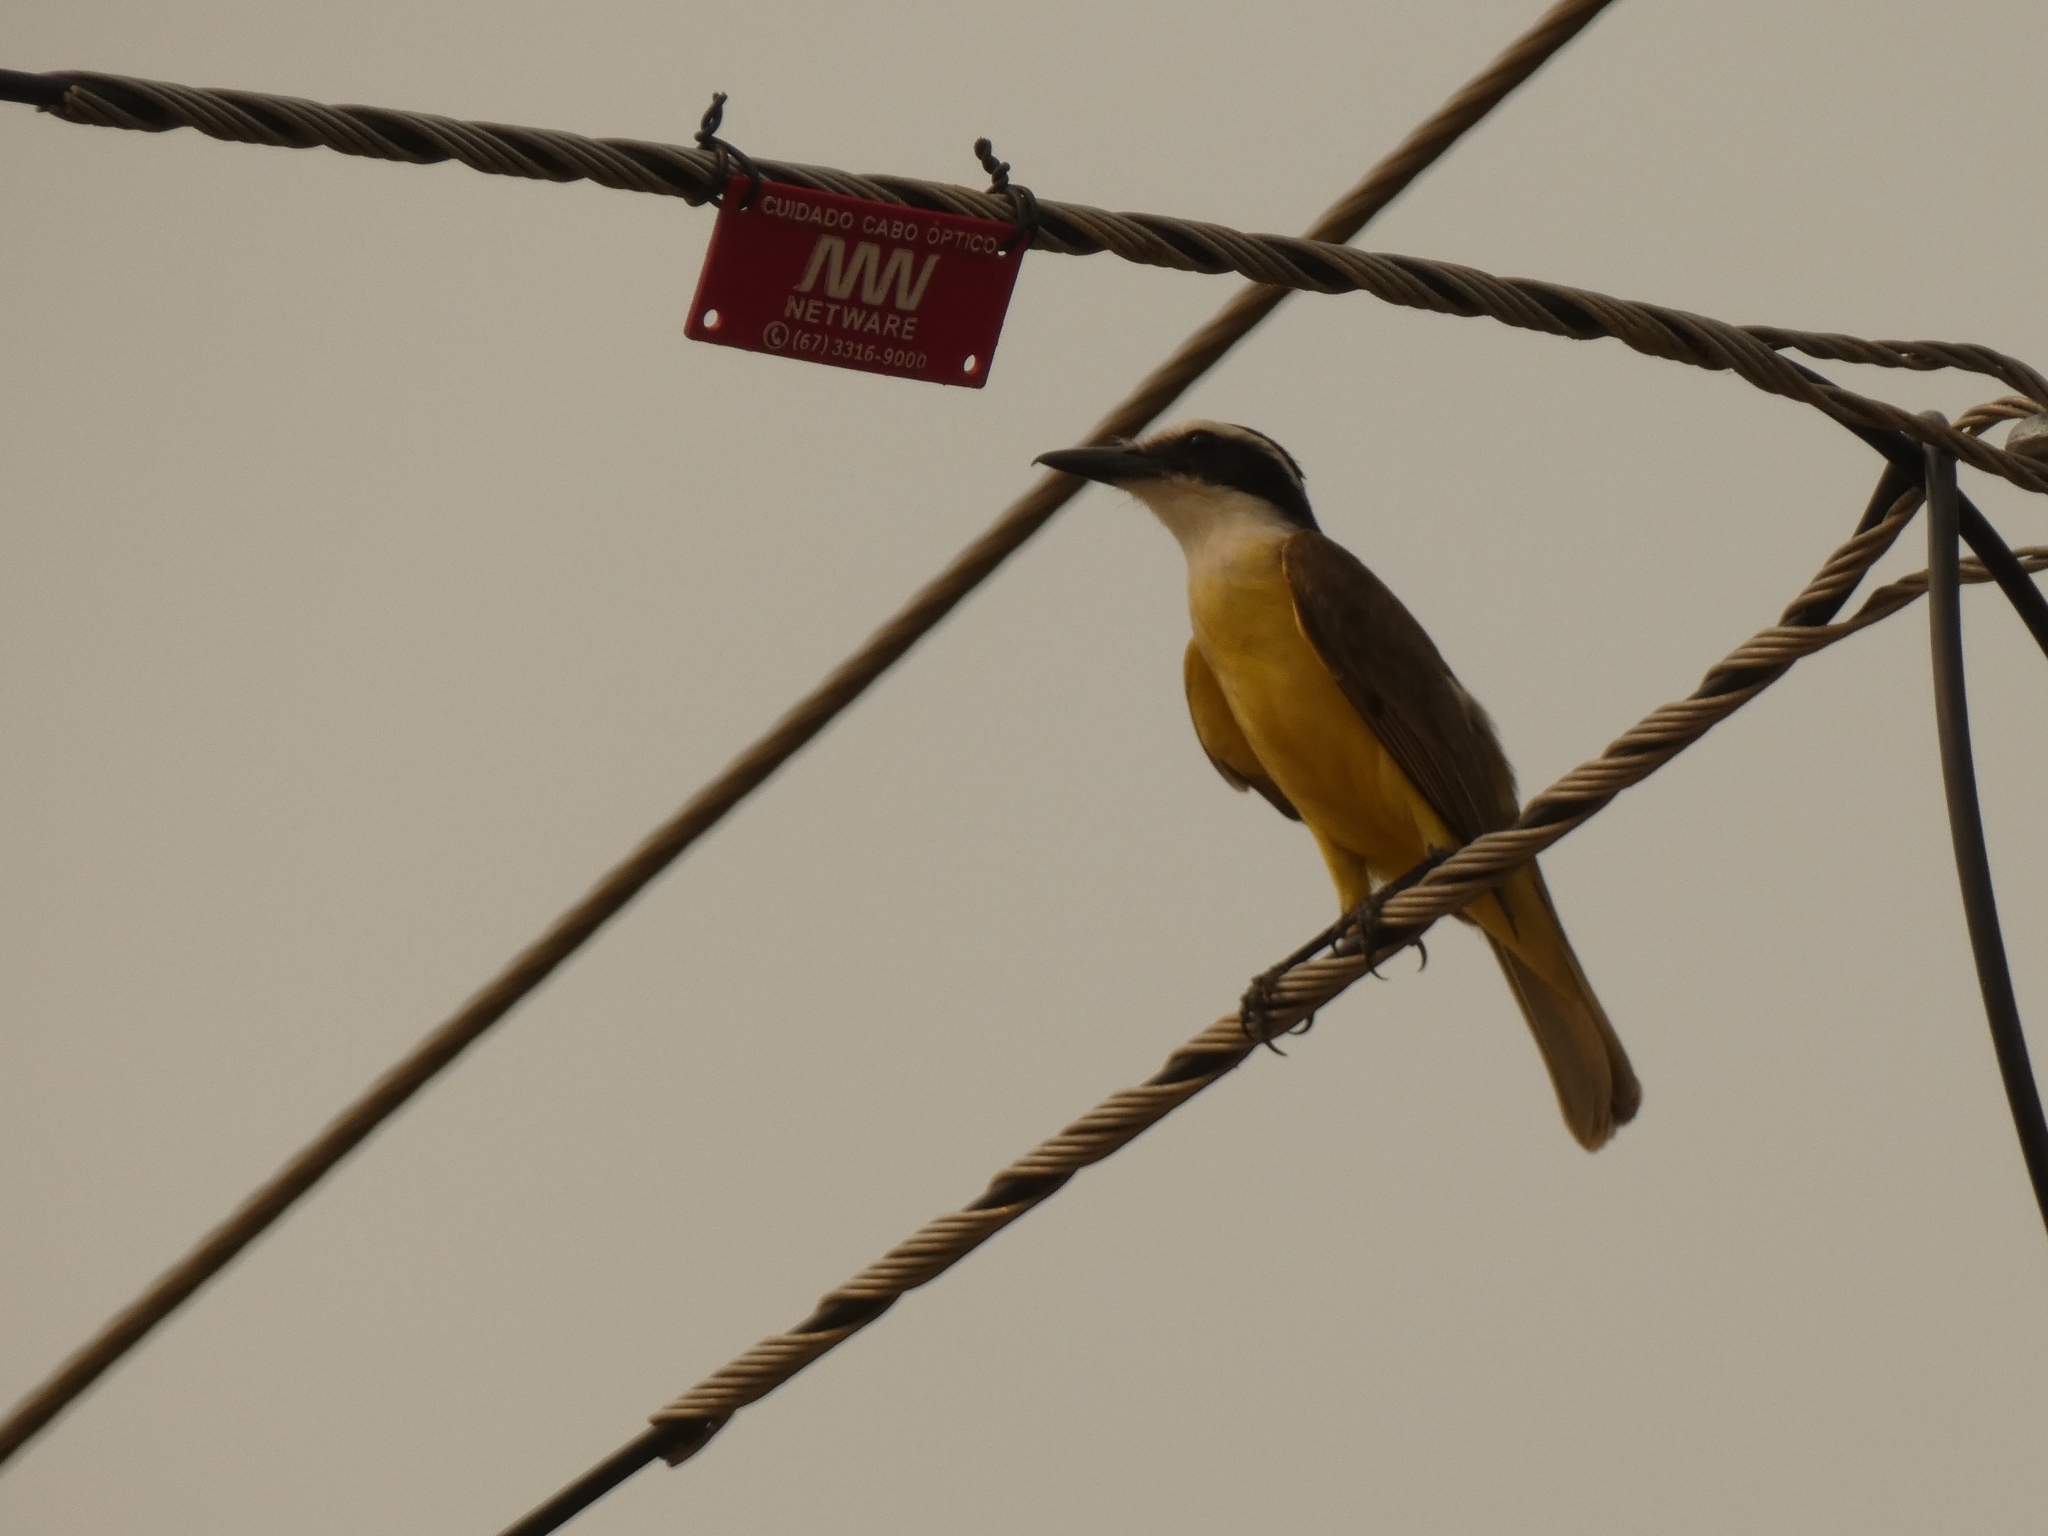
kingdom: Animalia
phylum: Chordata
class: Aves
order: Passeriformes
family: Tyrannidae
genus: Pitangus
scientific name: Pitangus sulphuratus
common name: Great kiskadee
